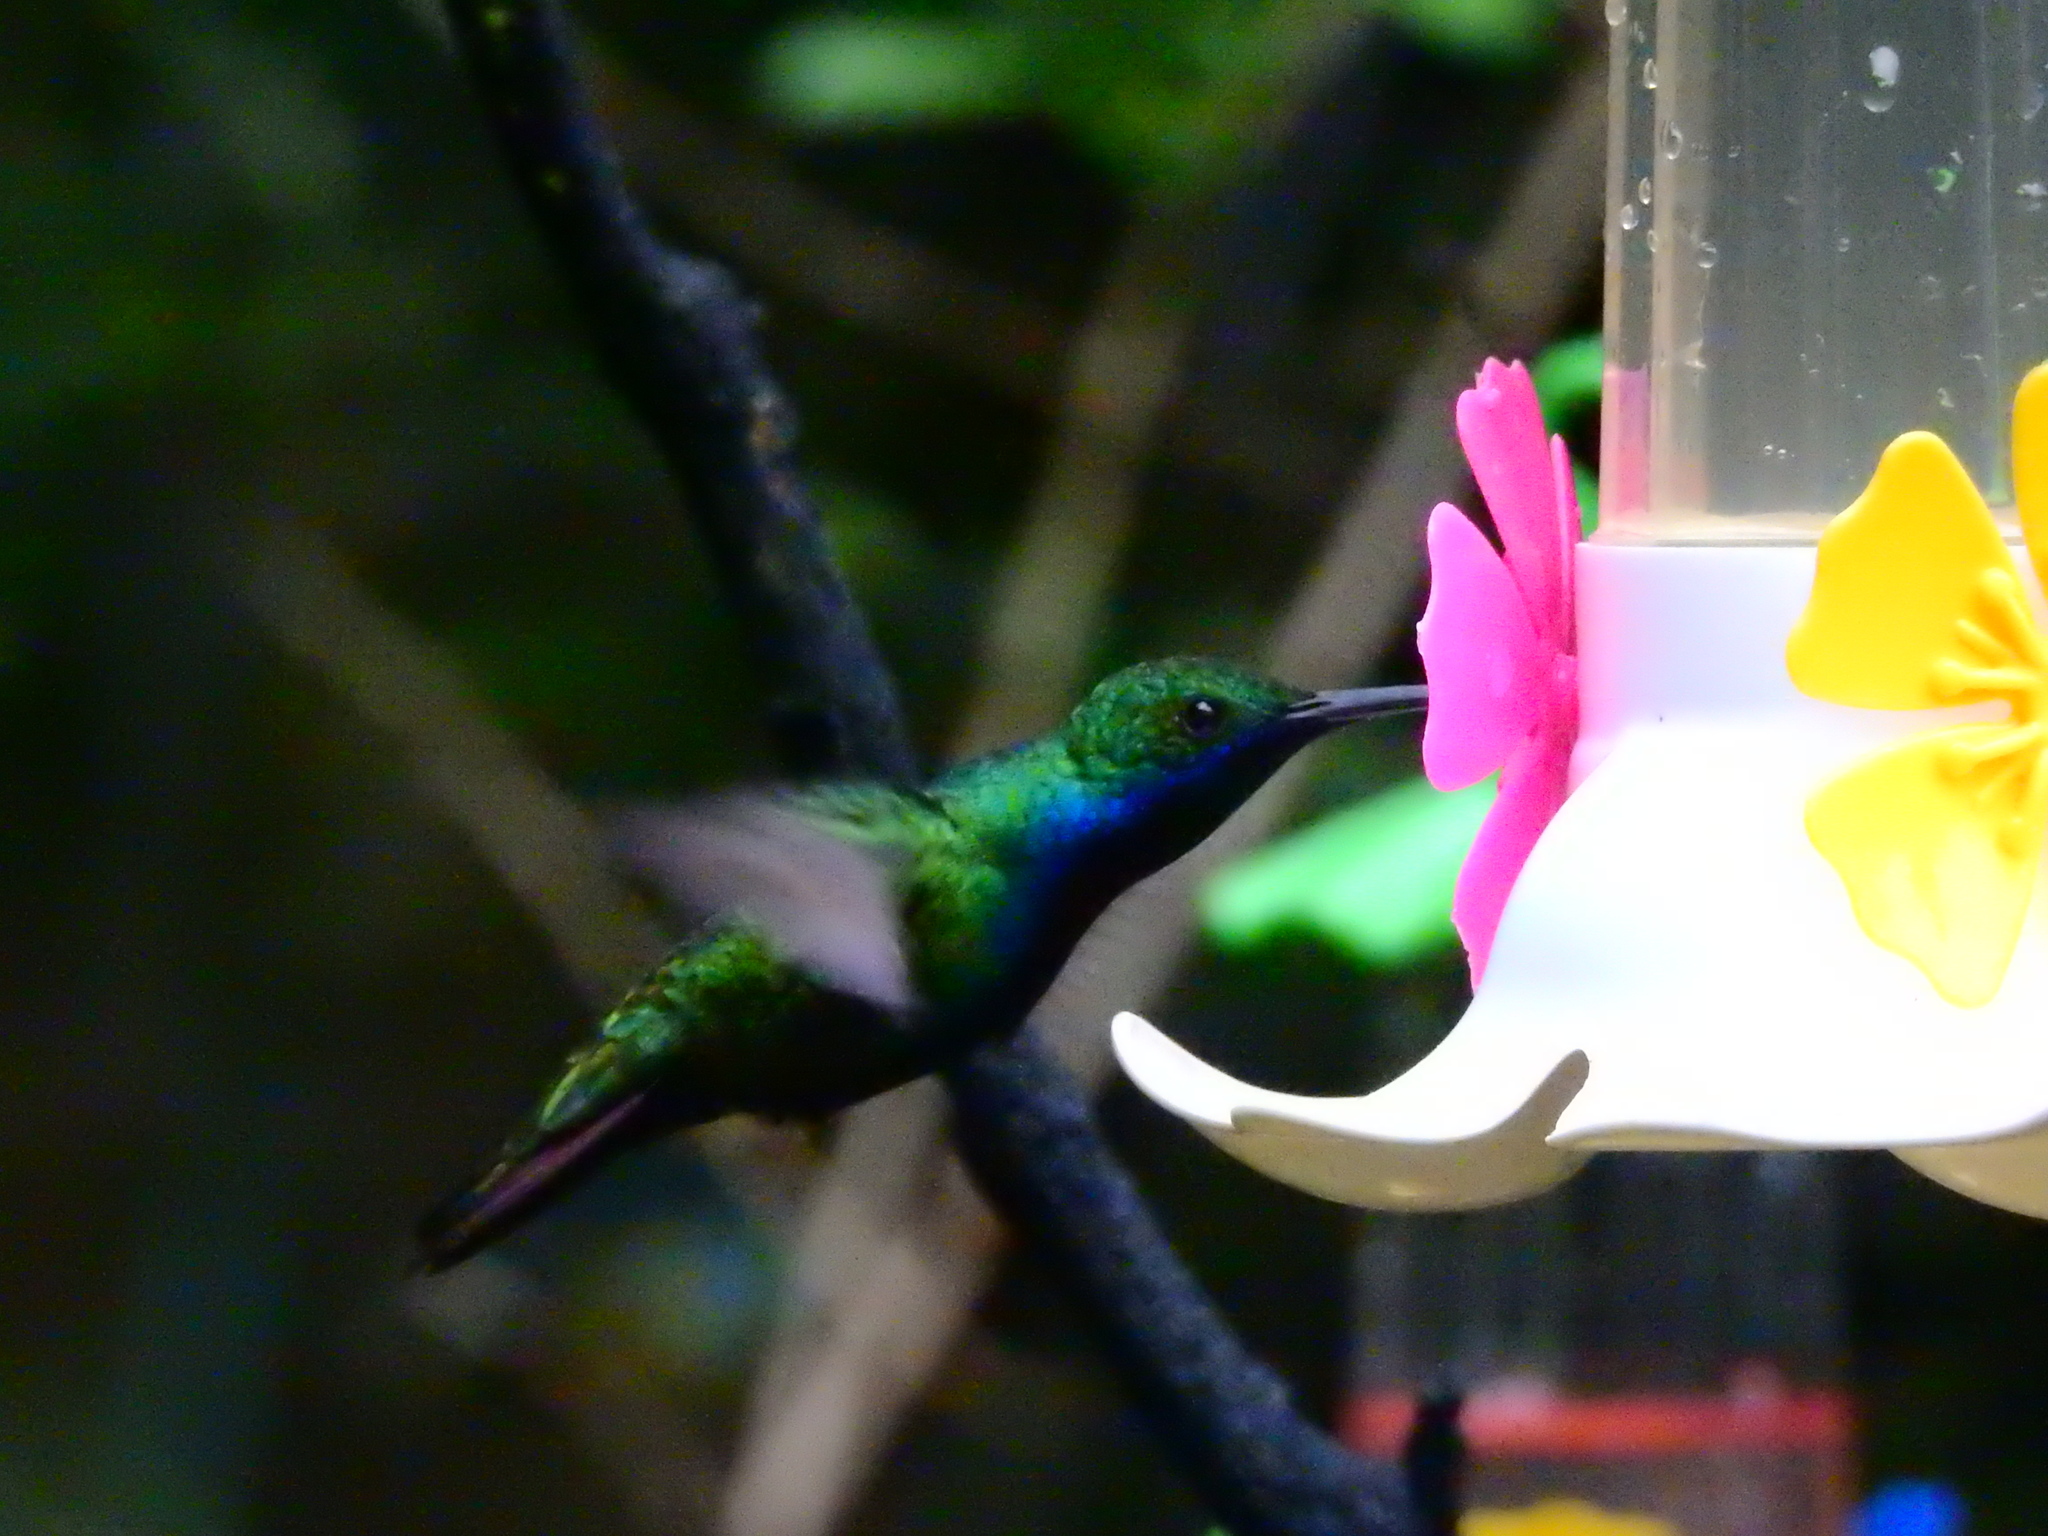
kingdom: Animalia
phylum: Chordata
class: Aves
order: Apodiformes
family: Trochilidae
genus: Anthracothorax
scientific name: Anthracothorax nigricollis
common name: Black-throated mango
